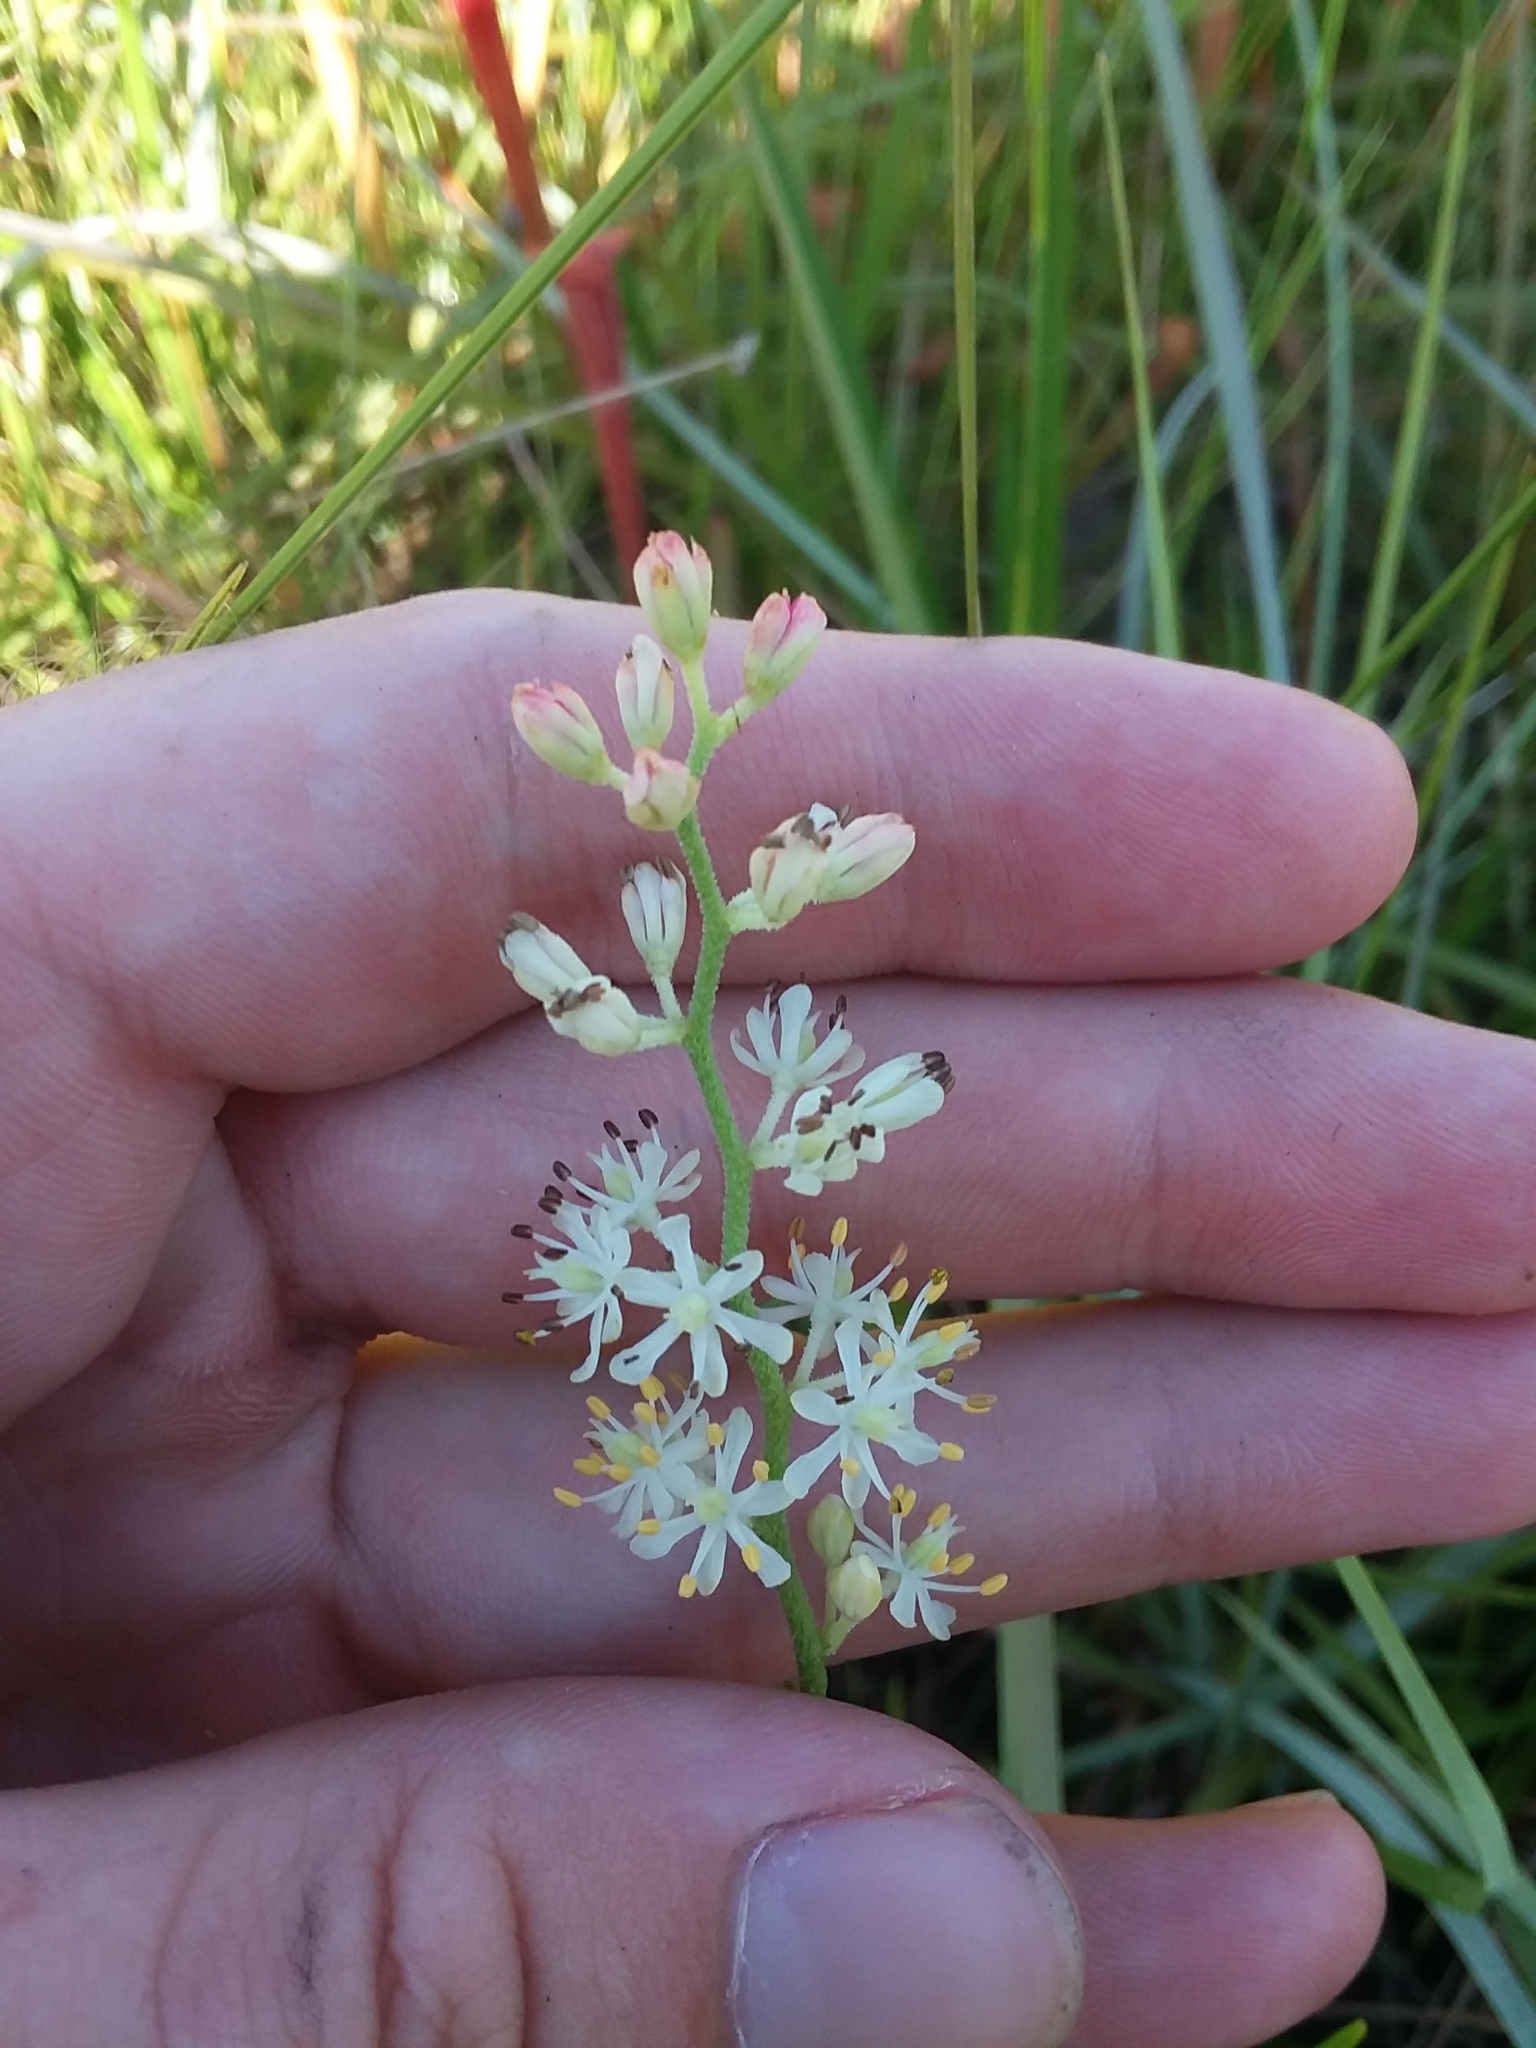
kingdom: Plantae
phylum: Tracheophyta
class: Liliopsida
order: Alismatales
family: Tofieldiaceae
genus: Triantha
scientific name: Triantha racemosa
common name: Coastal false asphodel
